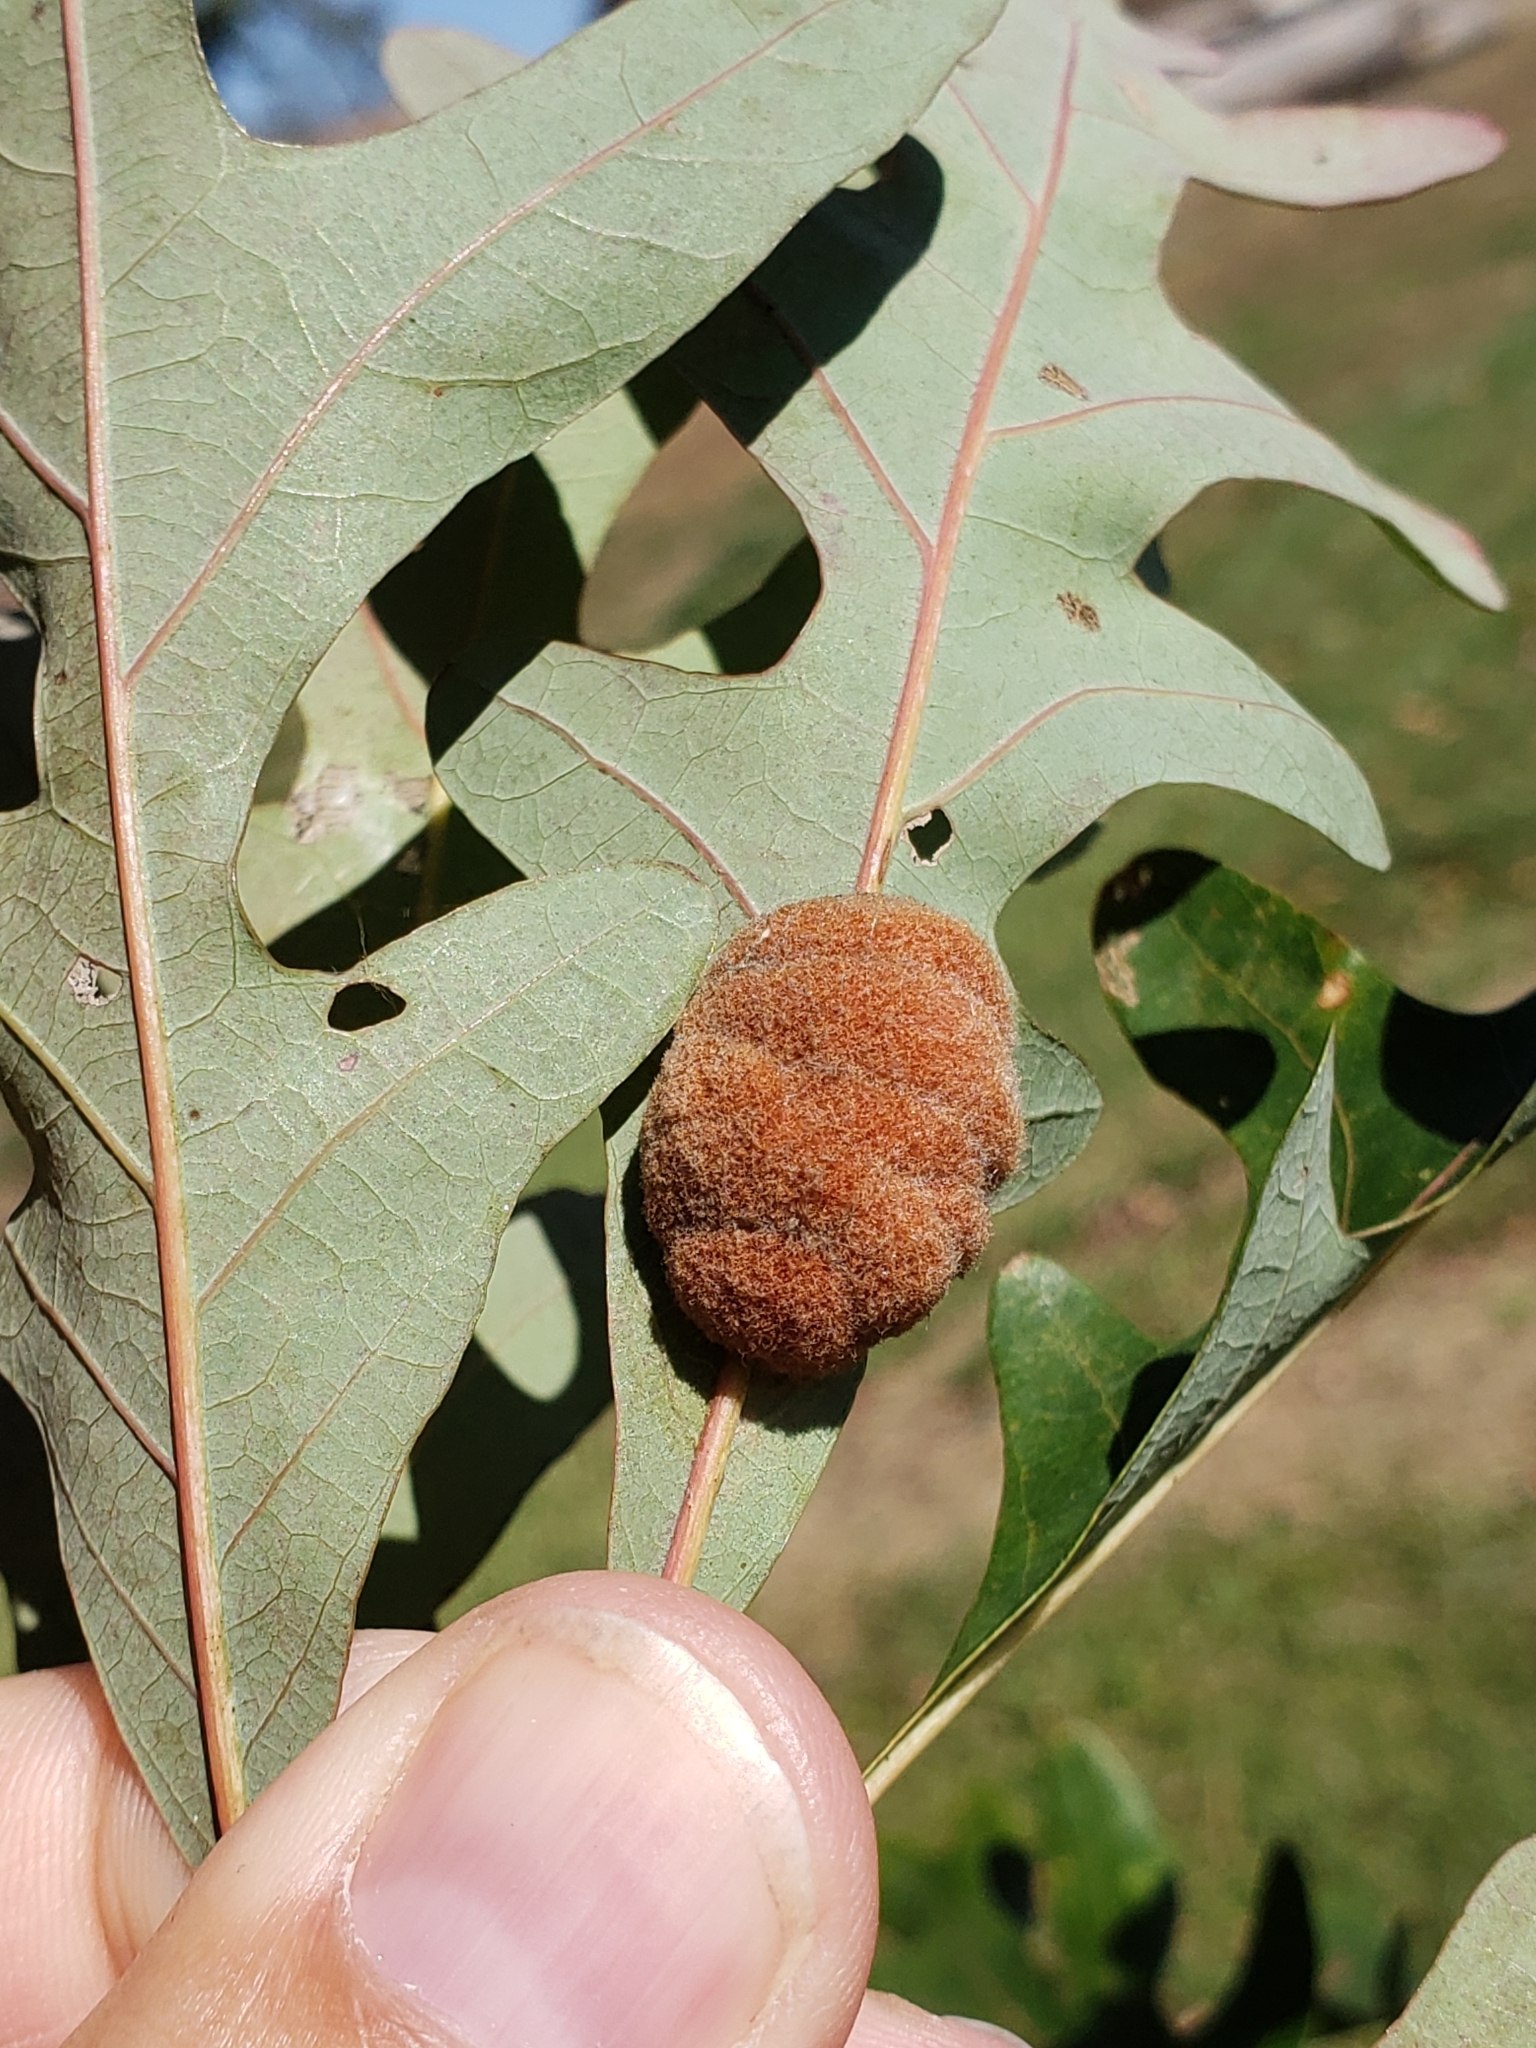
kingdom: Animalia
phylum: Arthropoda
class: Insecta
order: Hymenoptera
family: Cynipidae
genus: Andricus
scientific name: Andricus quercusflocci
